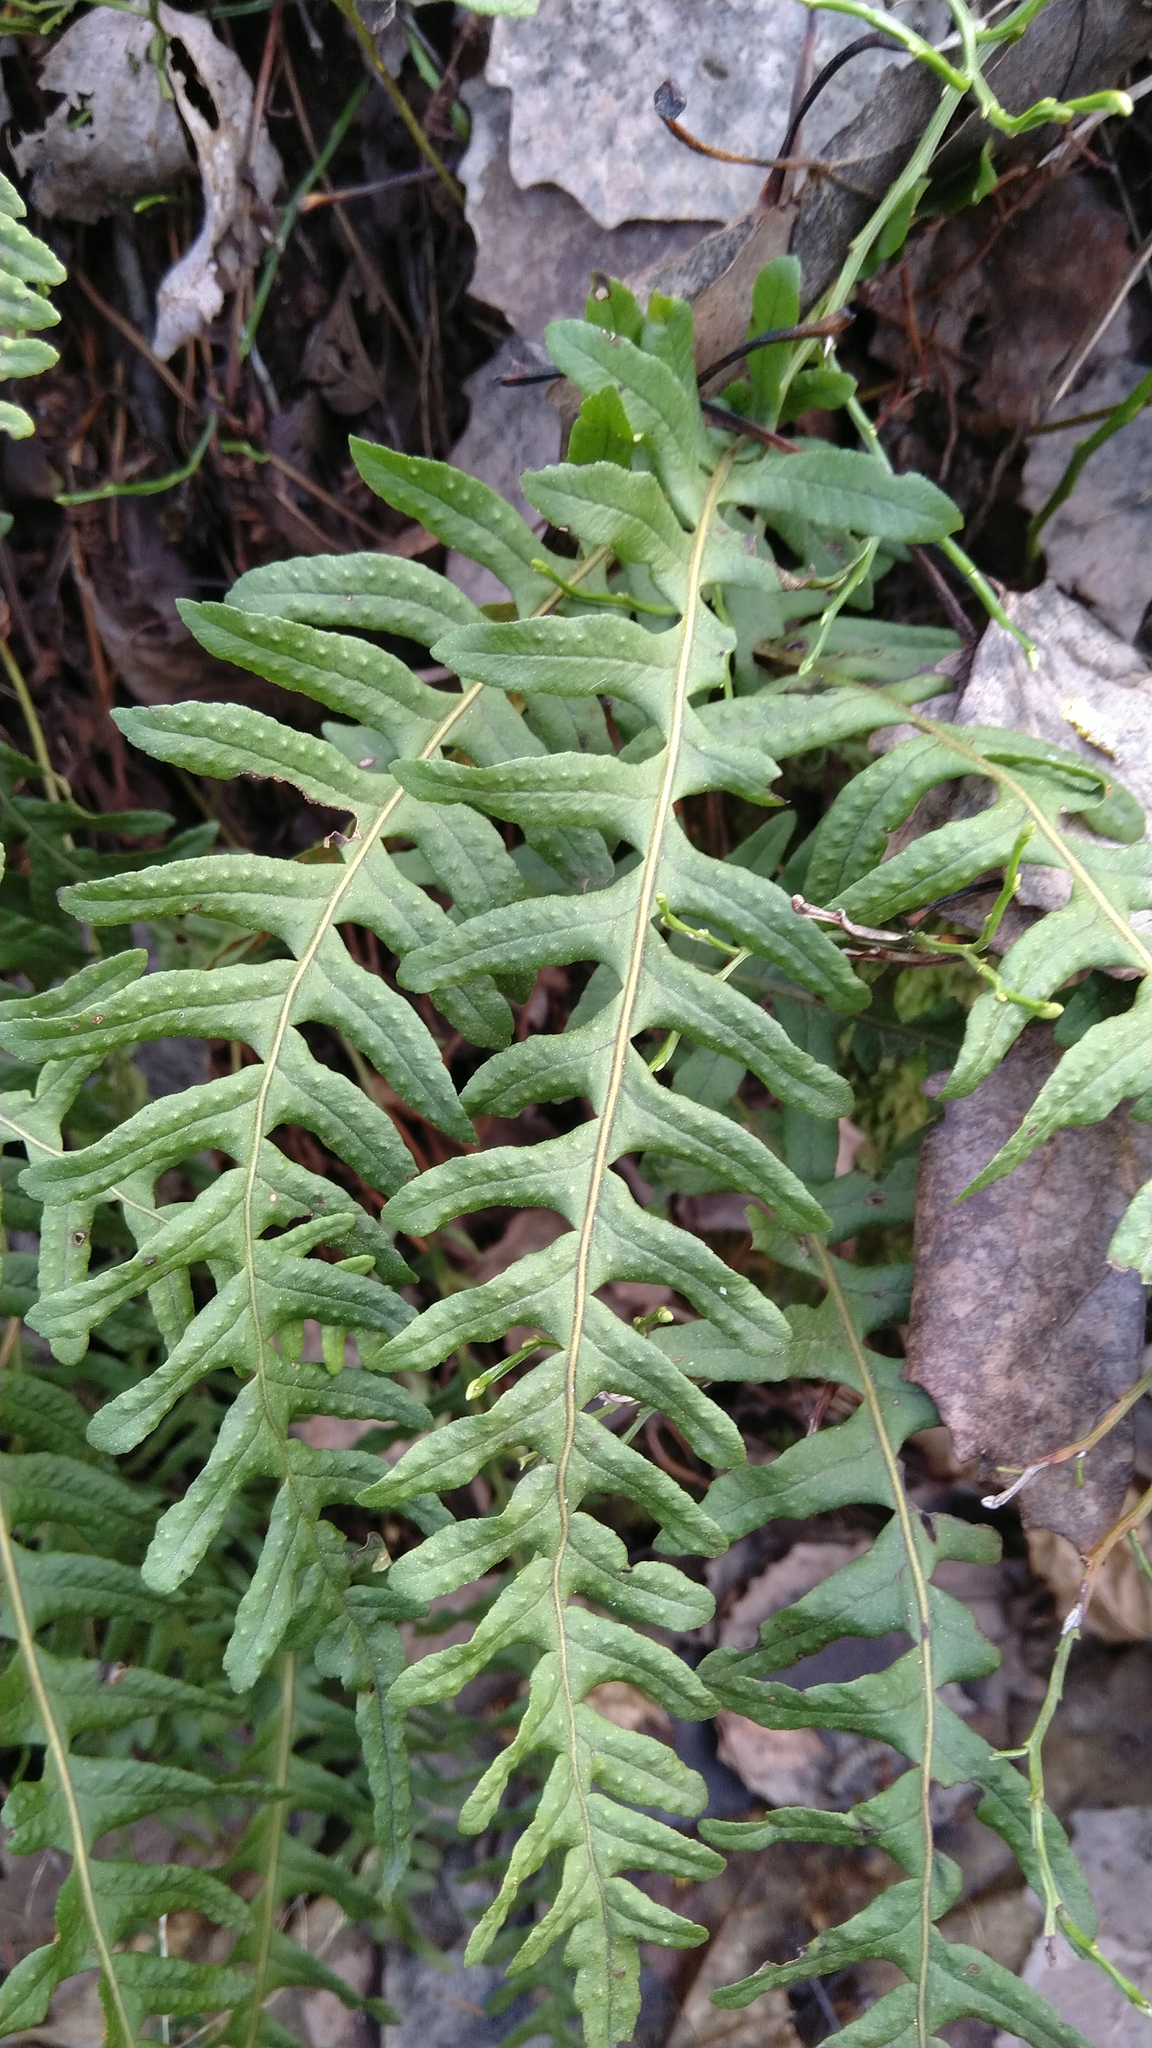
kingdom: Plantae
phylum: Tracheophyta
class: Polypodiopsida
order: Polypodiales
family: Polypodiaceae
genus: Polypodium
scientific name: Polypodium vulgare
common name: Common polypody
